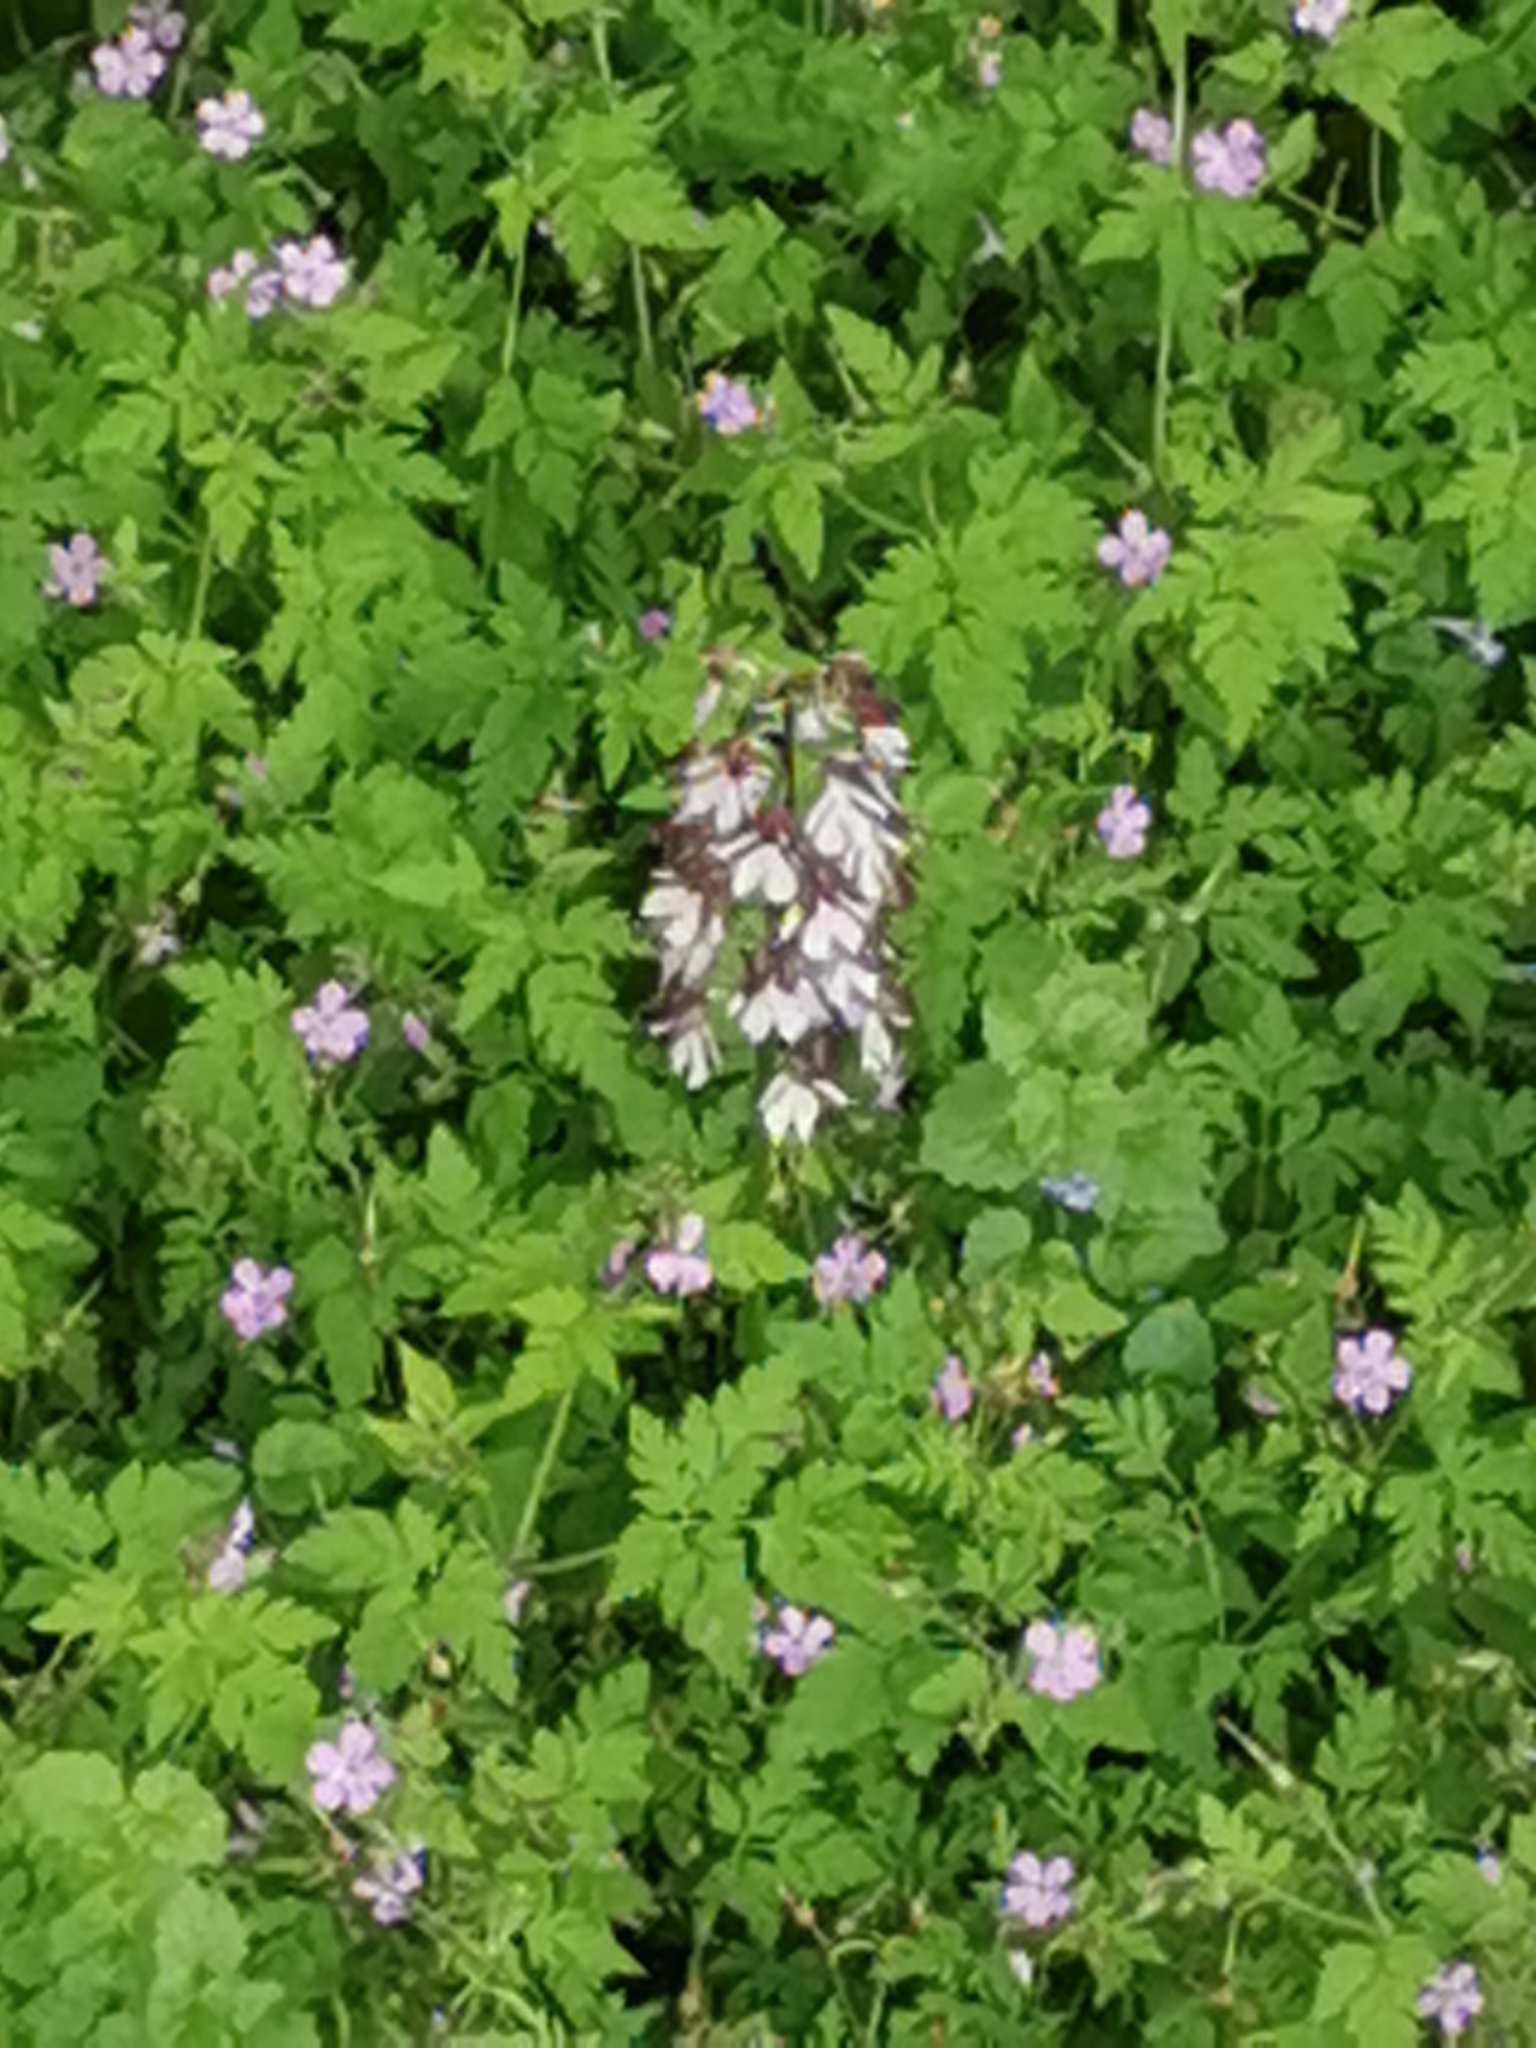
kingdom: Plantae
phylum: Tracheophyta
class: Liliopsida
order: Asparagales
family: Orchidaceae
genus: Orchis
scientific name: Orchis purpurea
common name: Lady orchid
